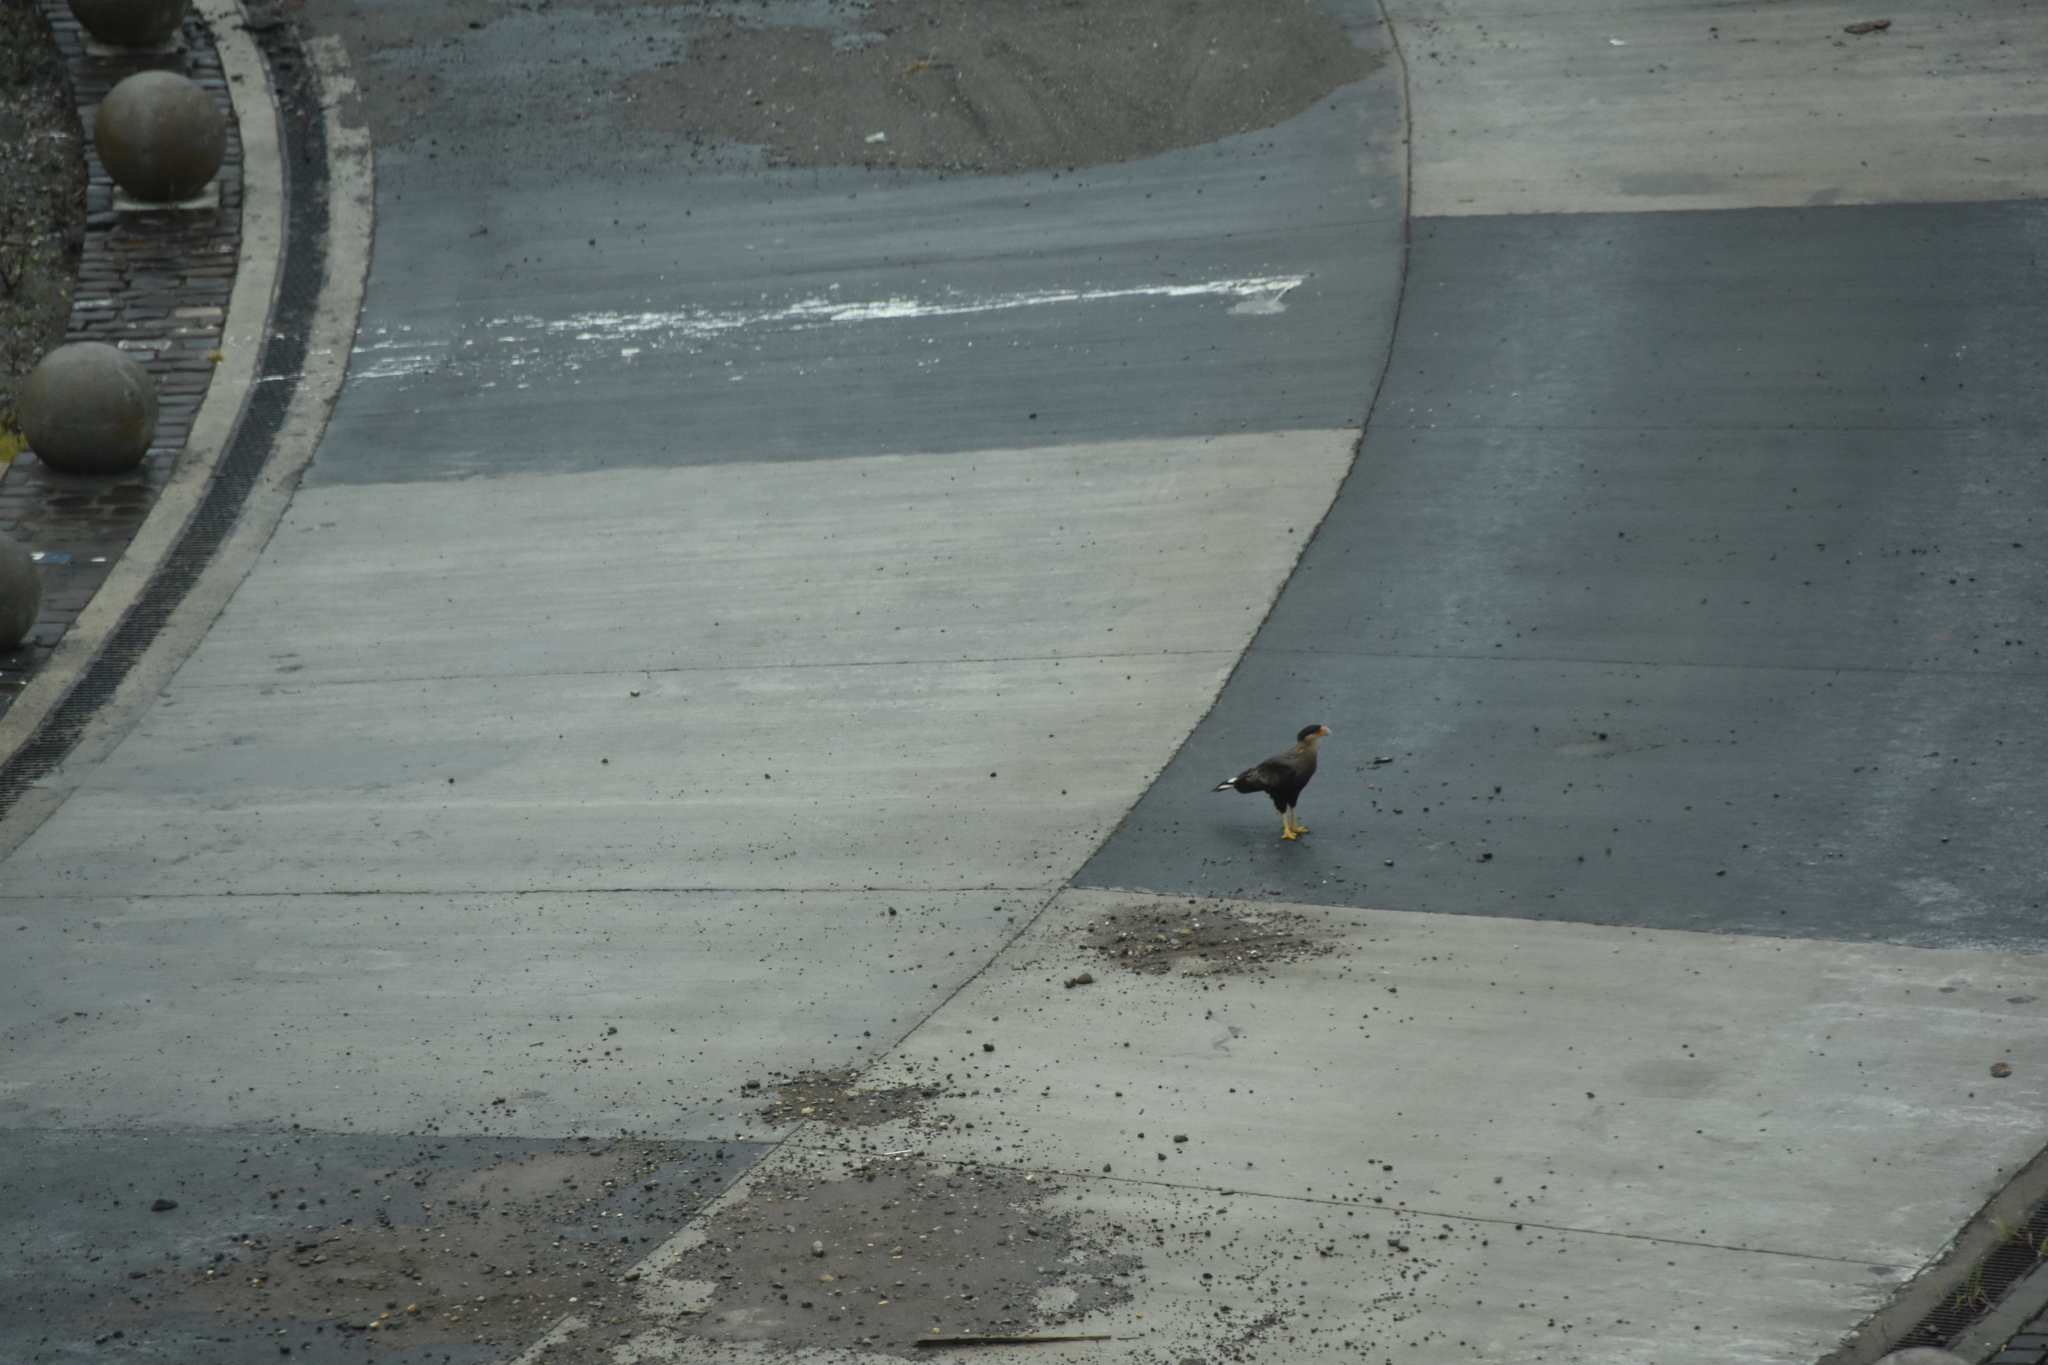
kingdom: Animalia
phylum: Chordata
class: Aves
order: Falconiformes
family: Falconidae
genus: Caracara
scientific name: Caracara plancus
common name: Southern caracara
